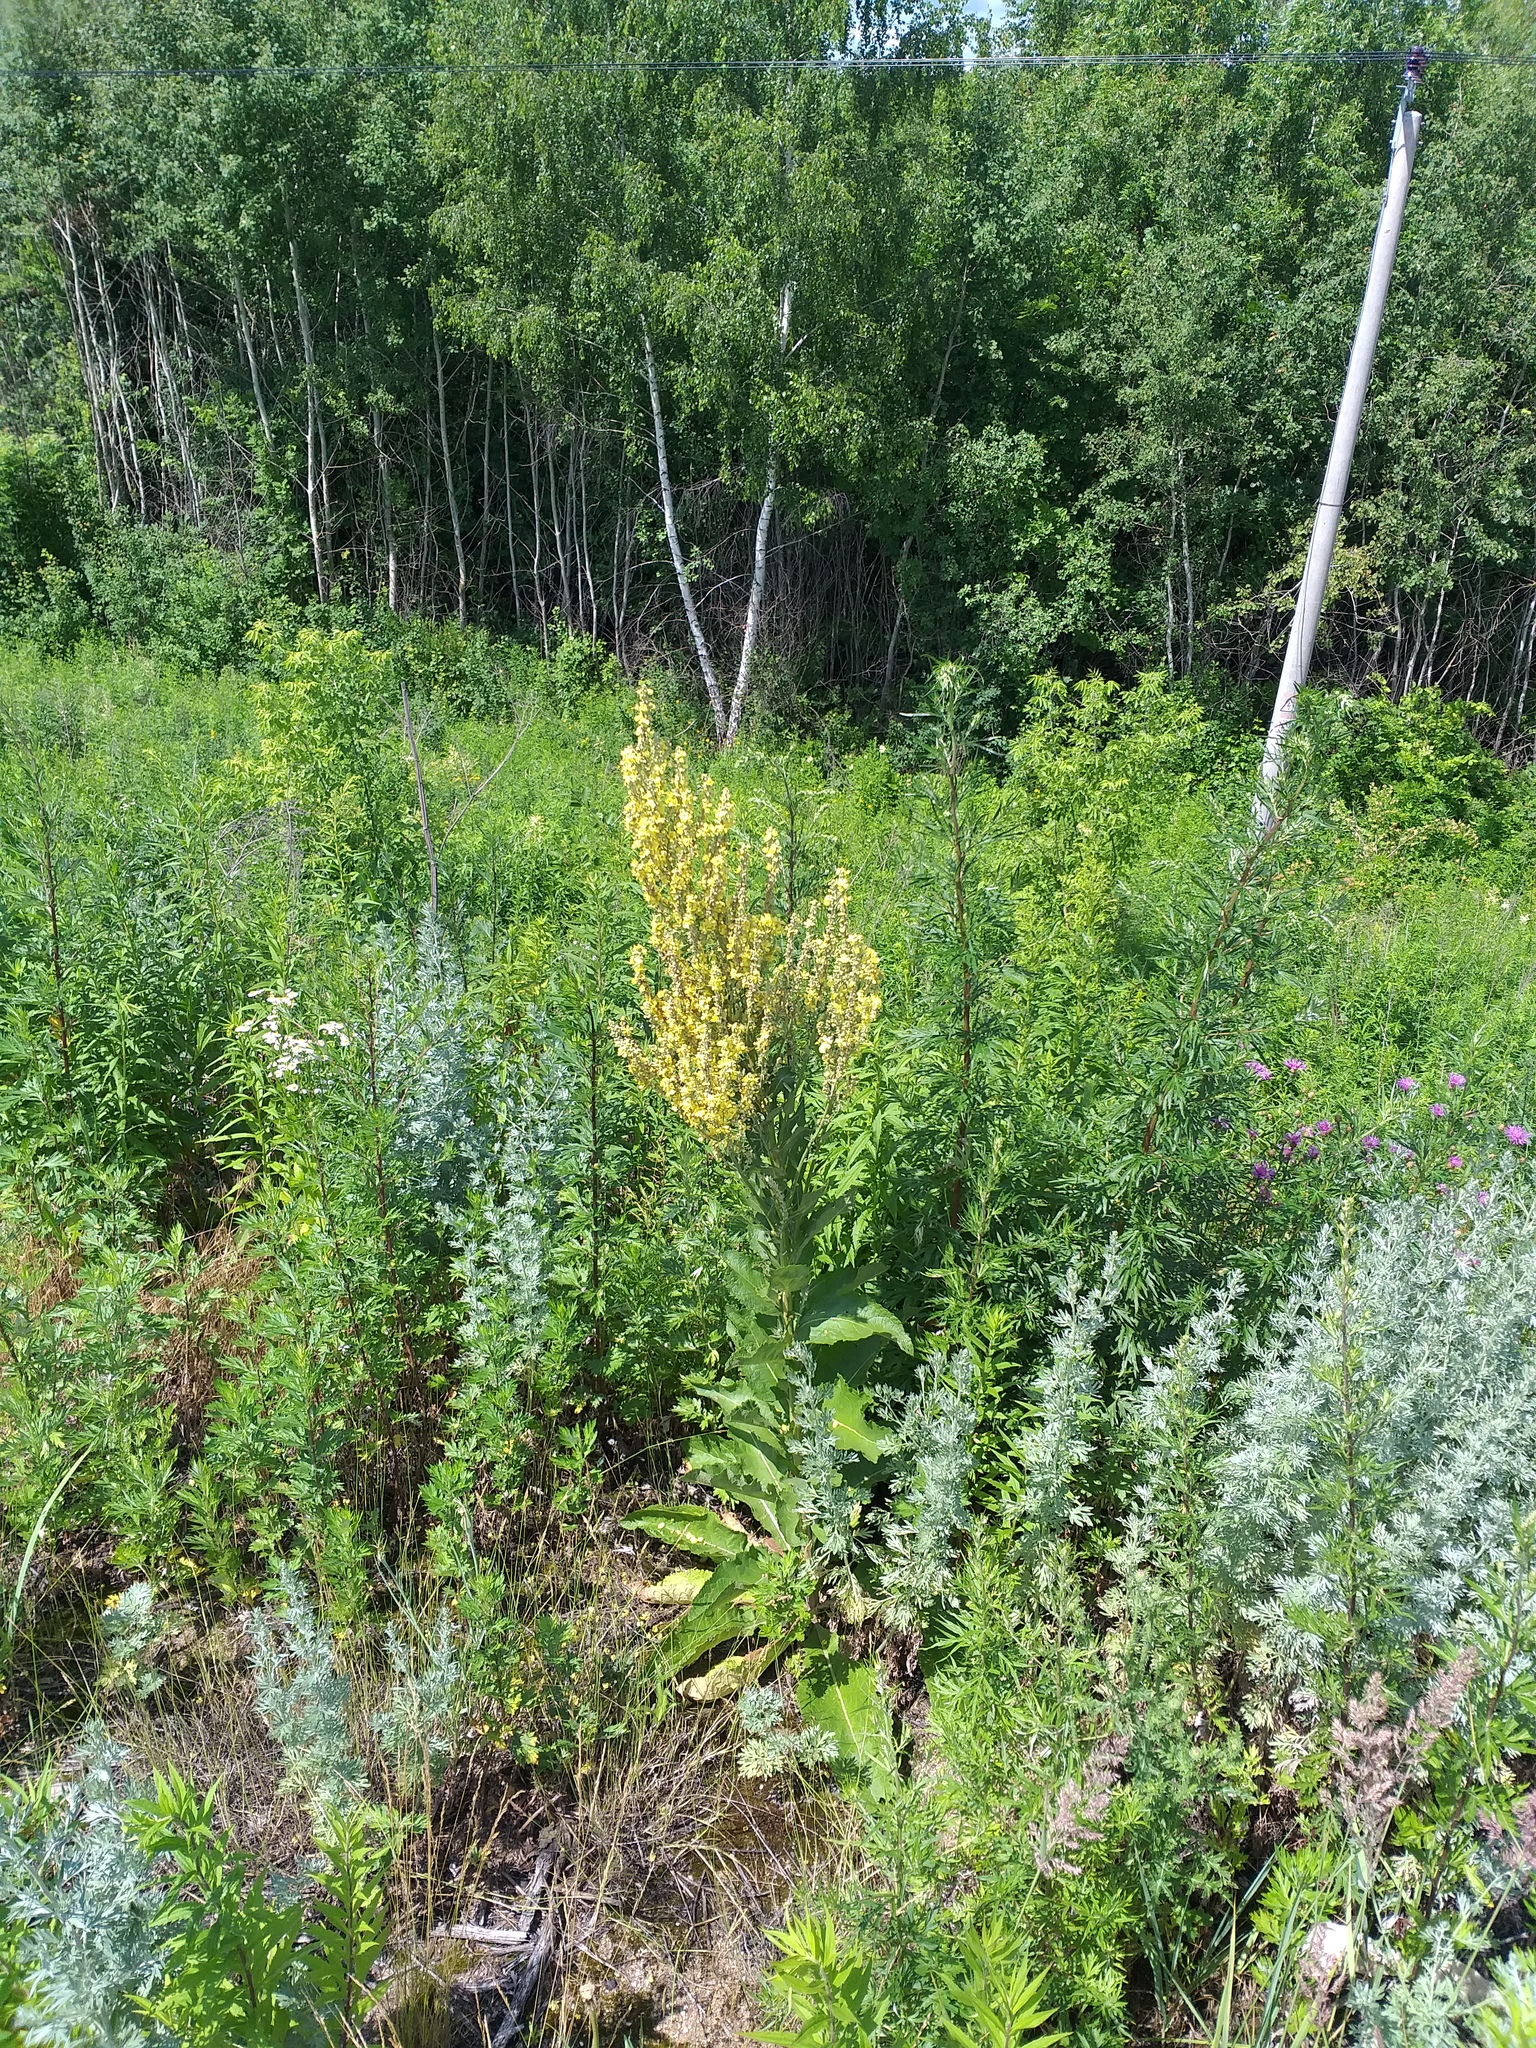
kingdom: Plantae
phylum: Tracheophyta
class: Magnoliopsida
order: Lamiales
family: Scrophulariaceae
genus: Verbascum
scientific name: Verbascum lychnitis
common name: White mullein
